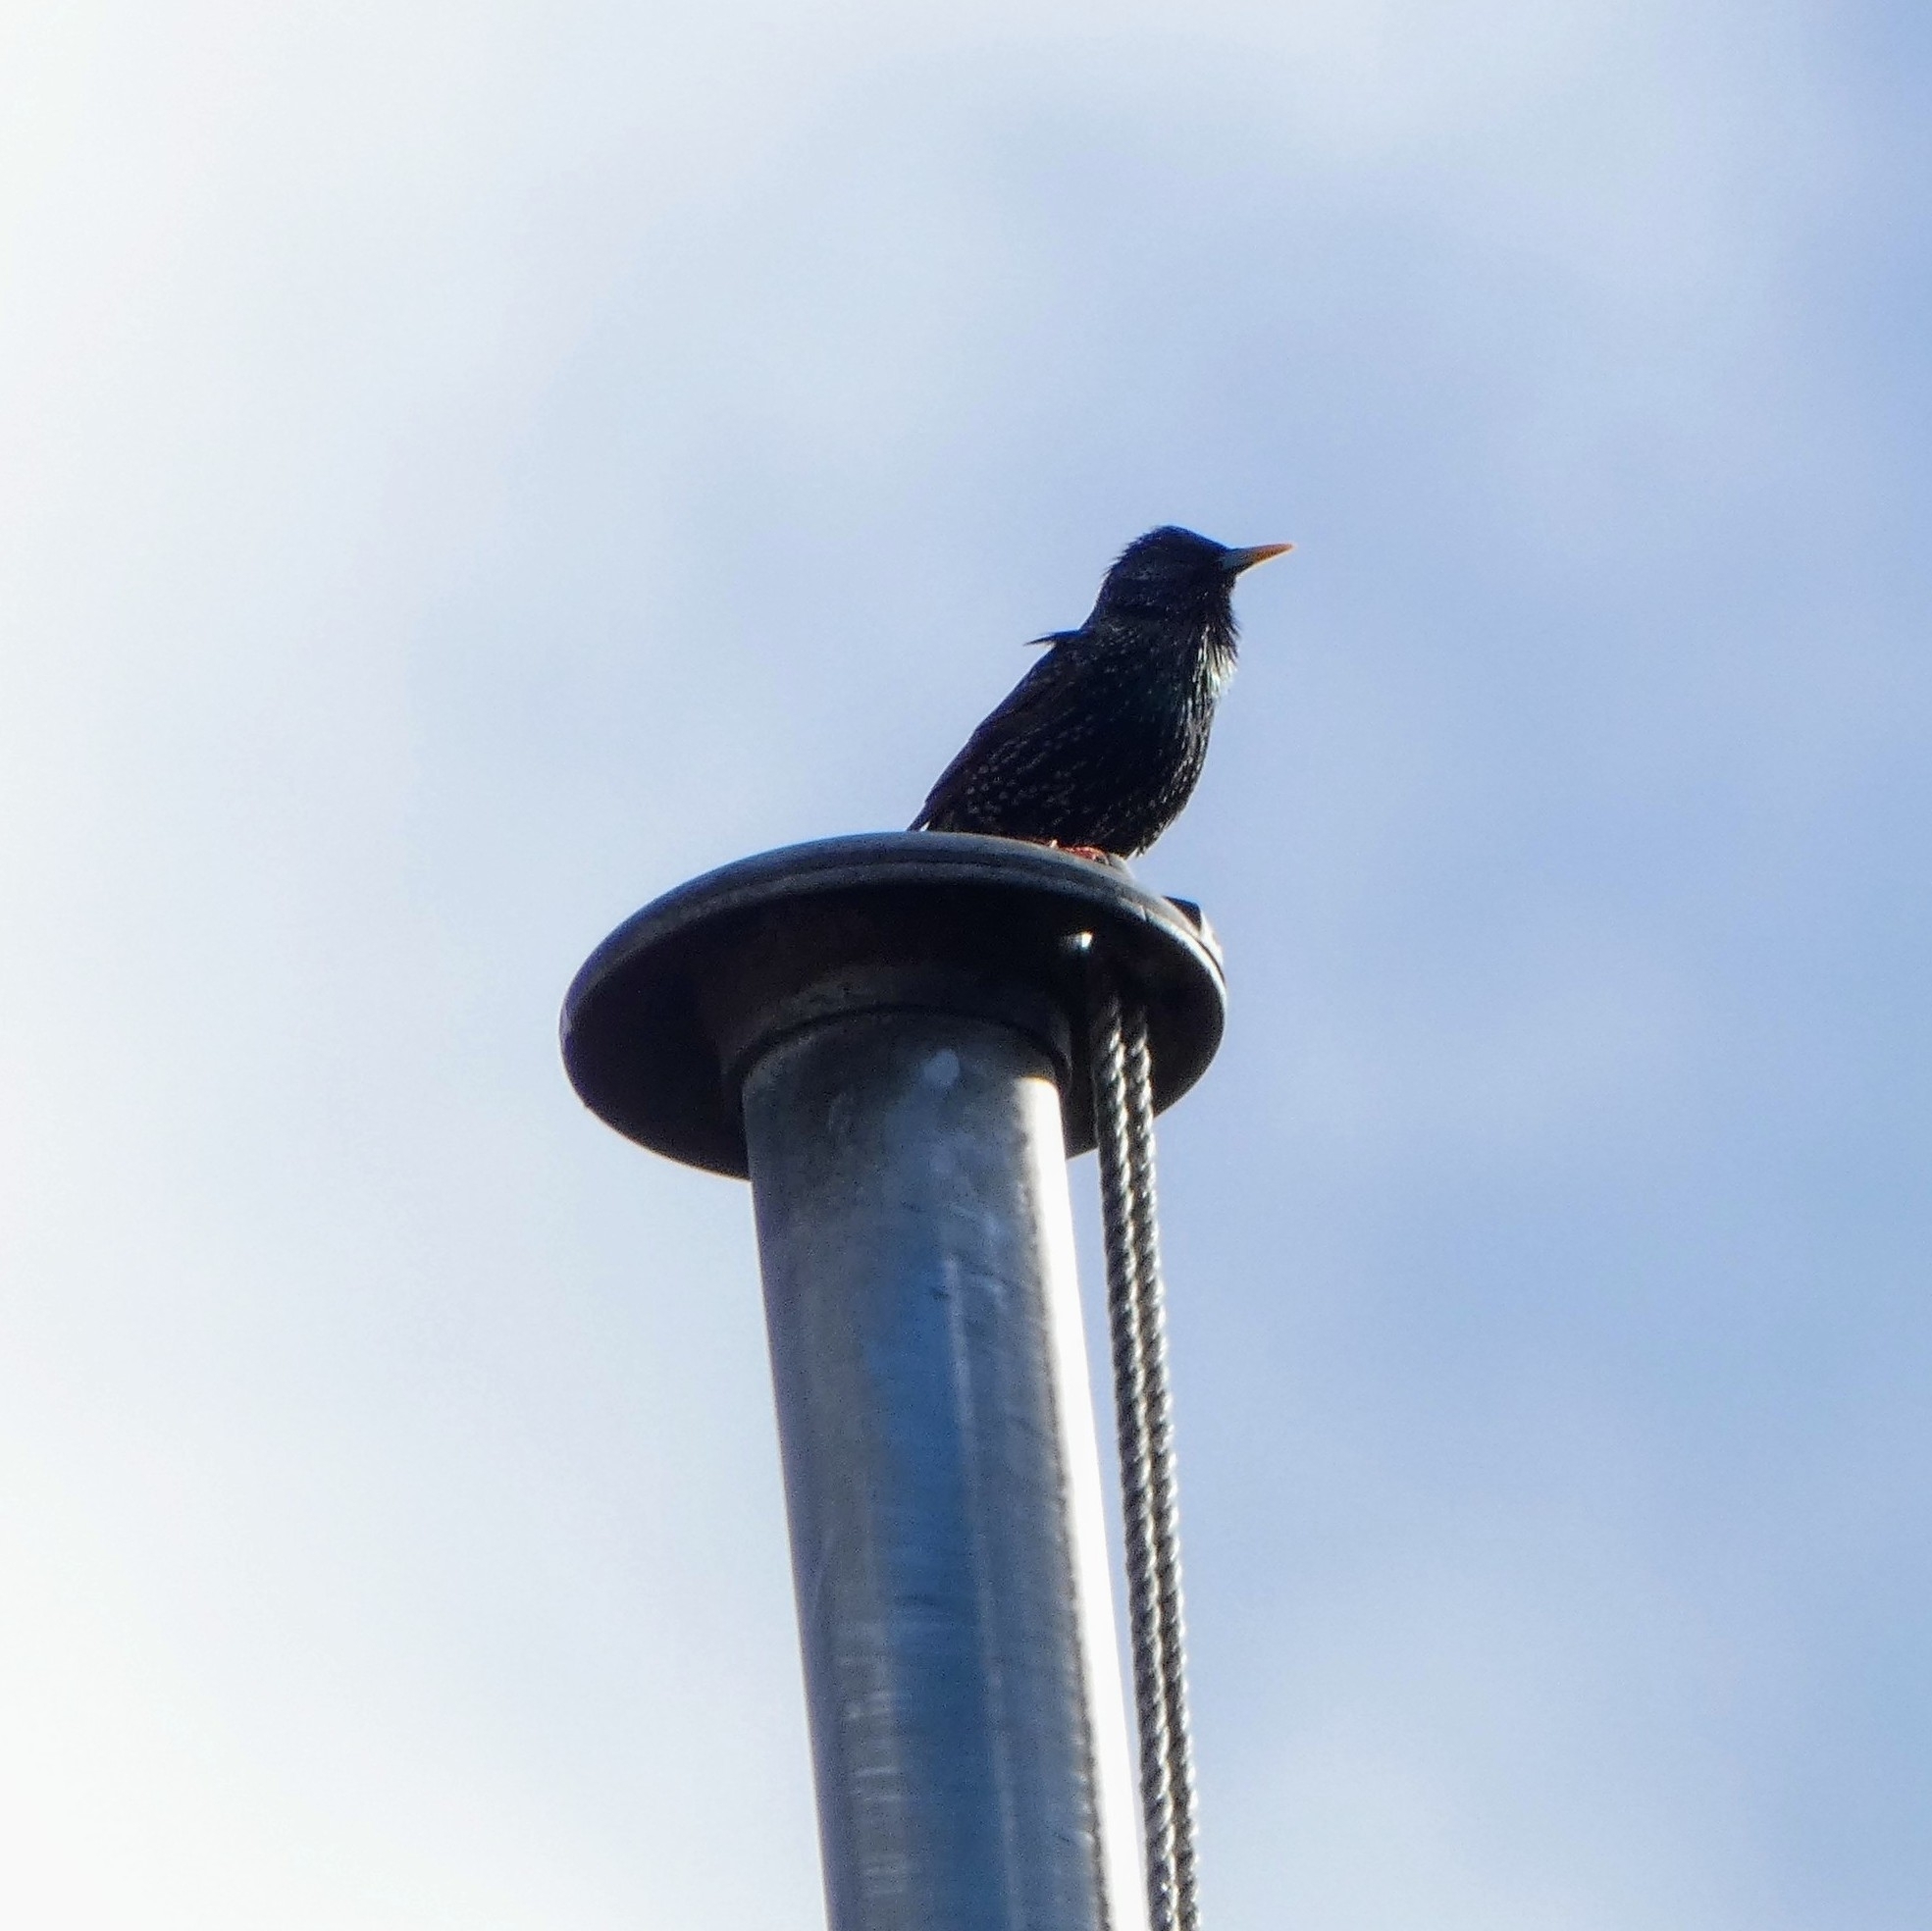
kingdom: Animalia
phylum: Chordata
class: Aves
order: Passeriformes
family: Sturnidae
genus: Sturnus
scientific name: Sturnus vulgaris
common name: Common starling
